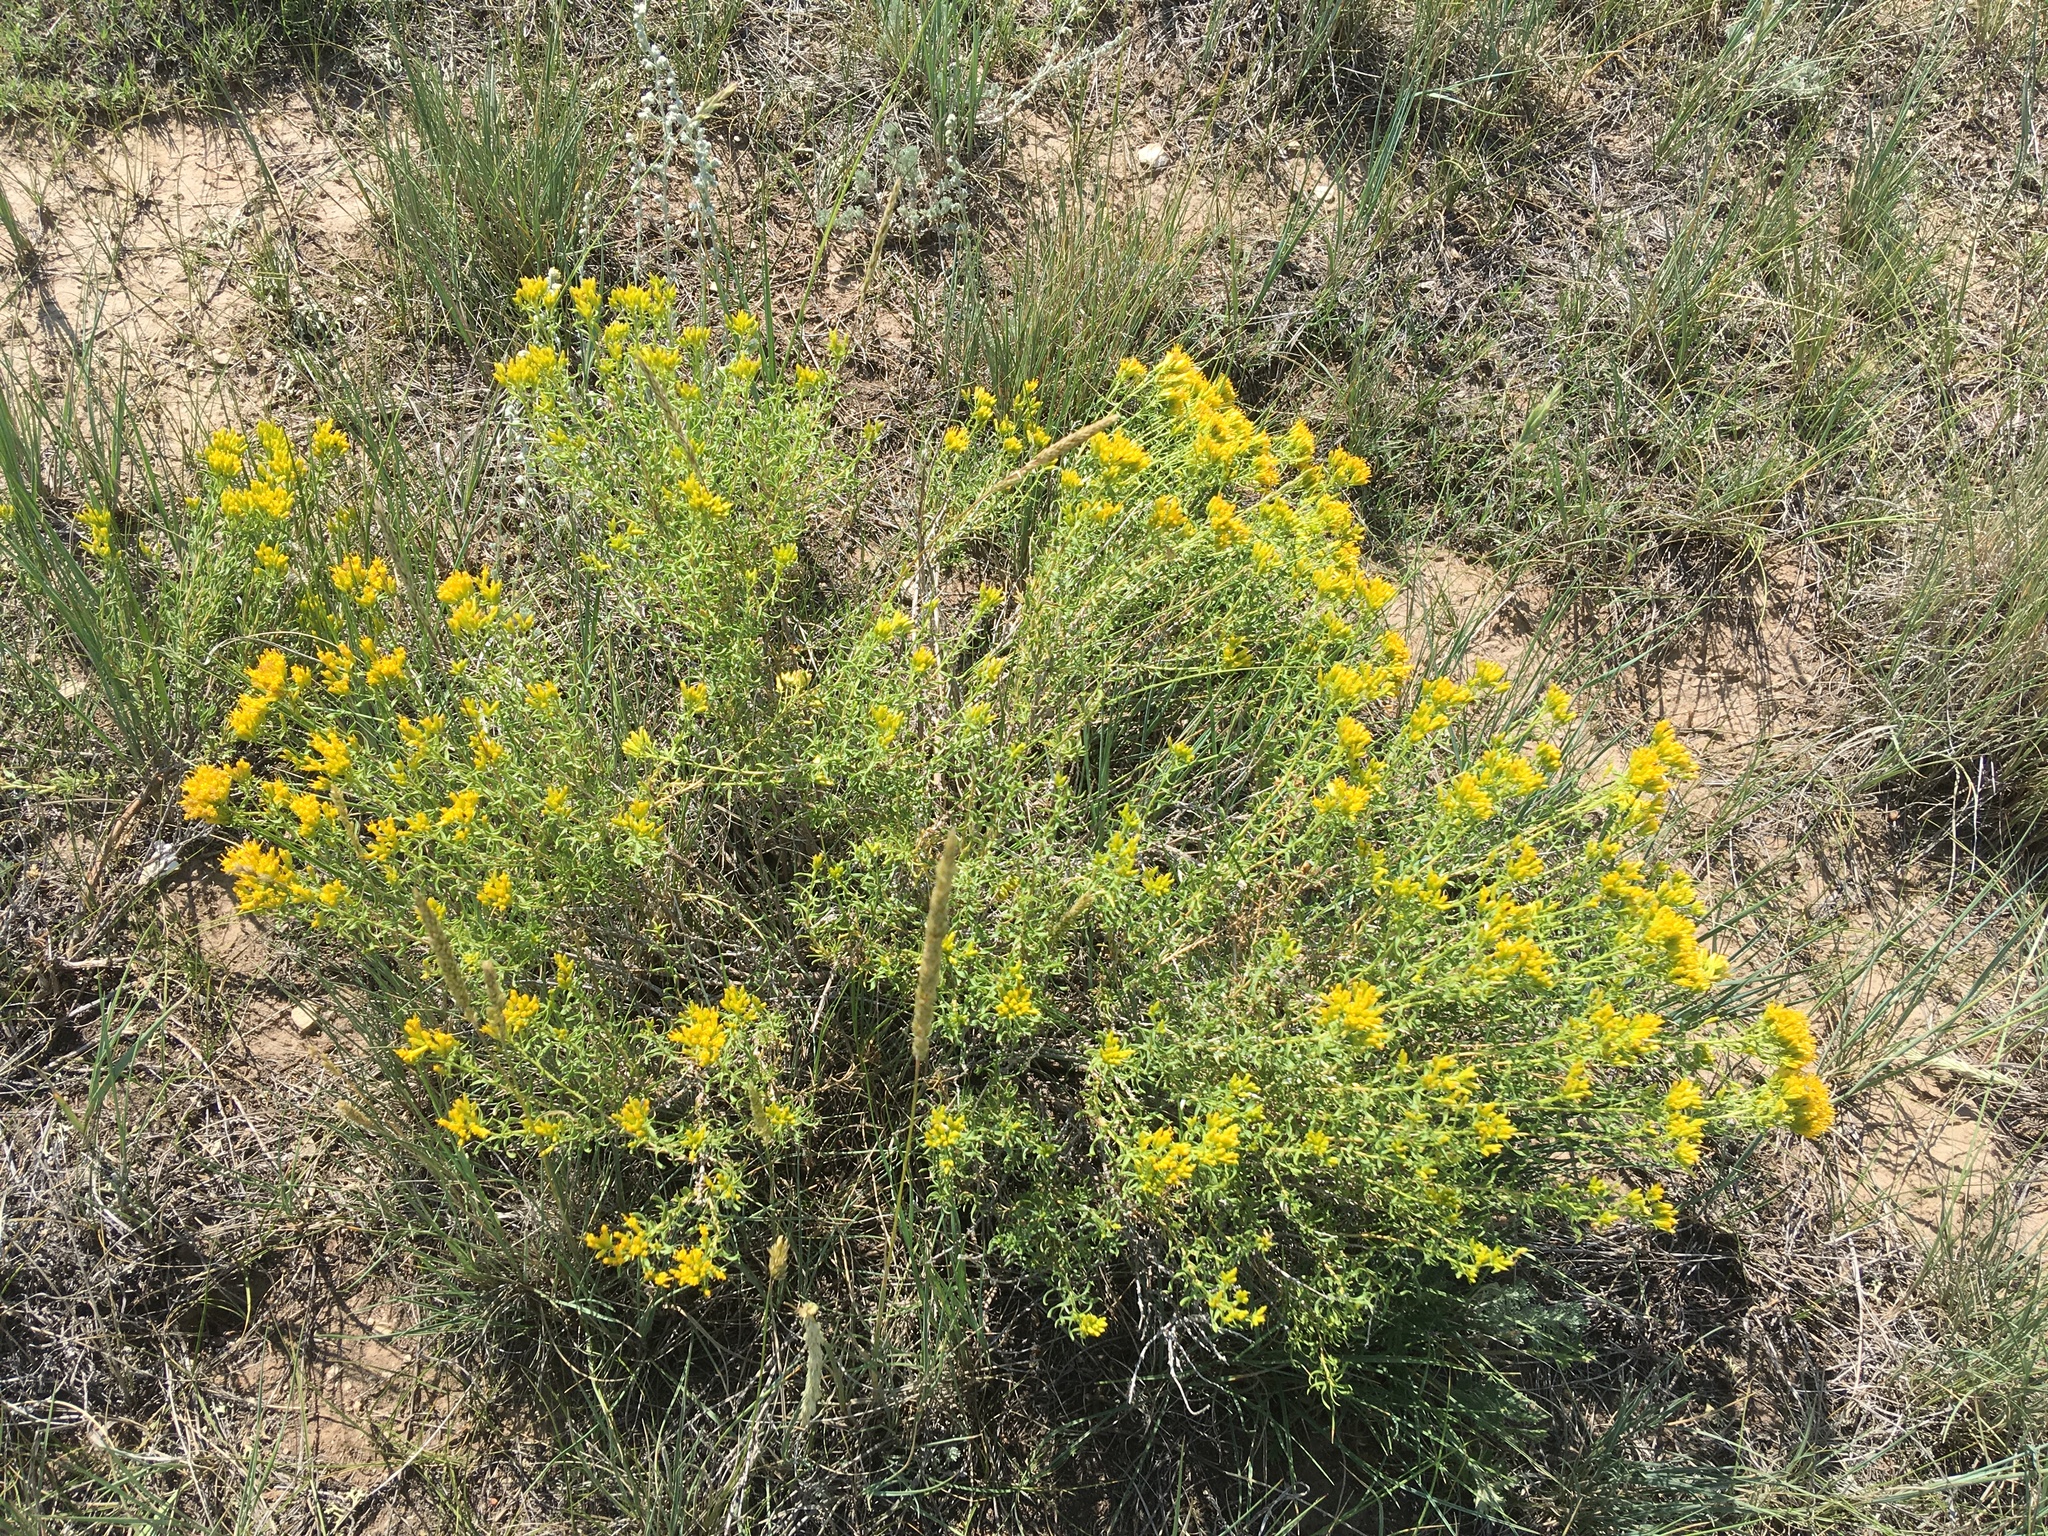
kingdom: Plantae
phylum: Tracheophyta
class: Magnoliopsida
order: Asterales
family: Asteraceae
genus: Chrysothamnus
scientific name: Chrysothamnus viscidiflorus
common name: Yellow rabbitbrush
